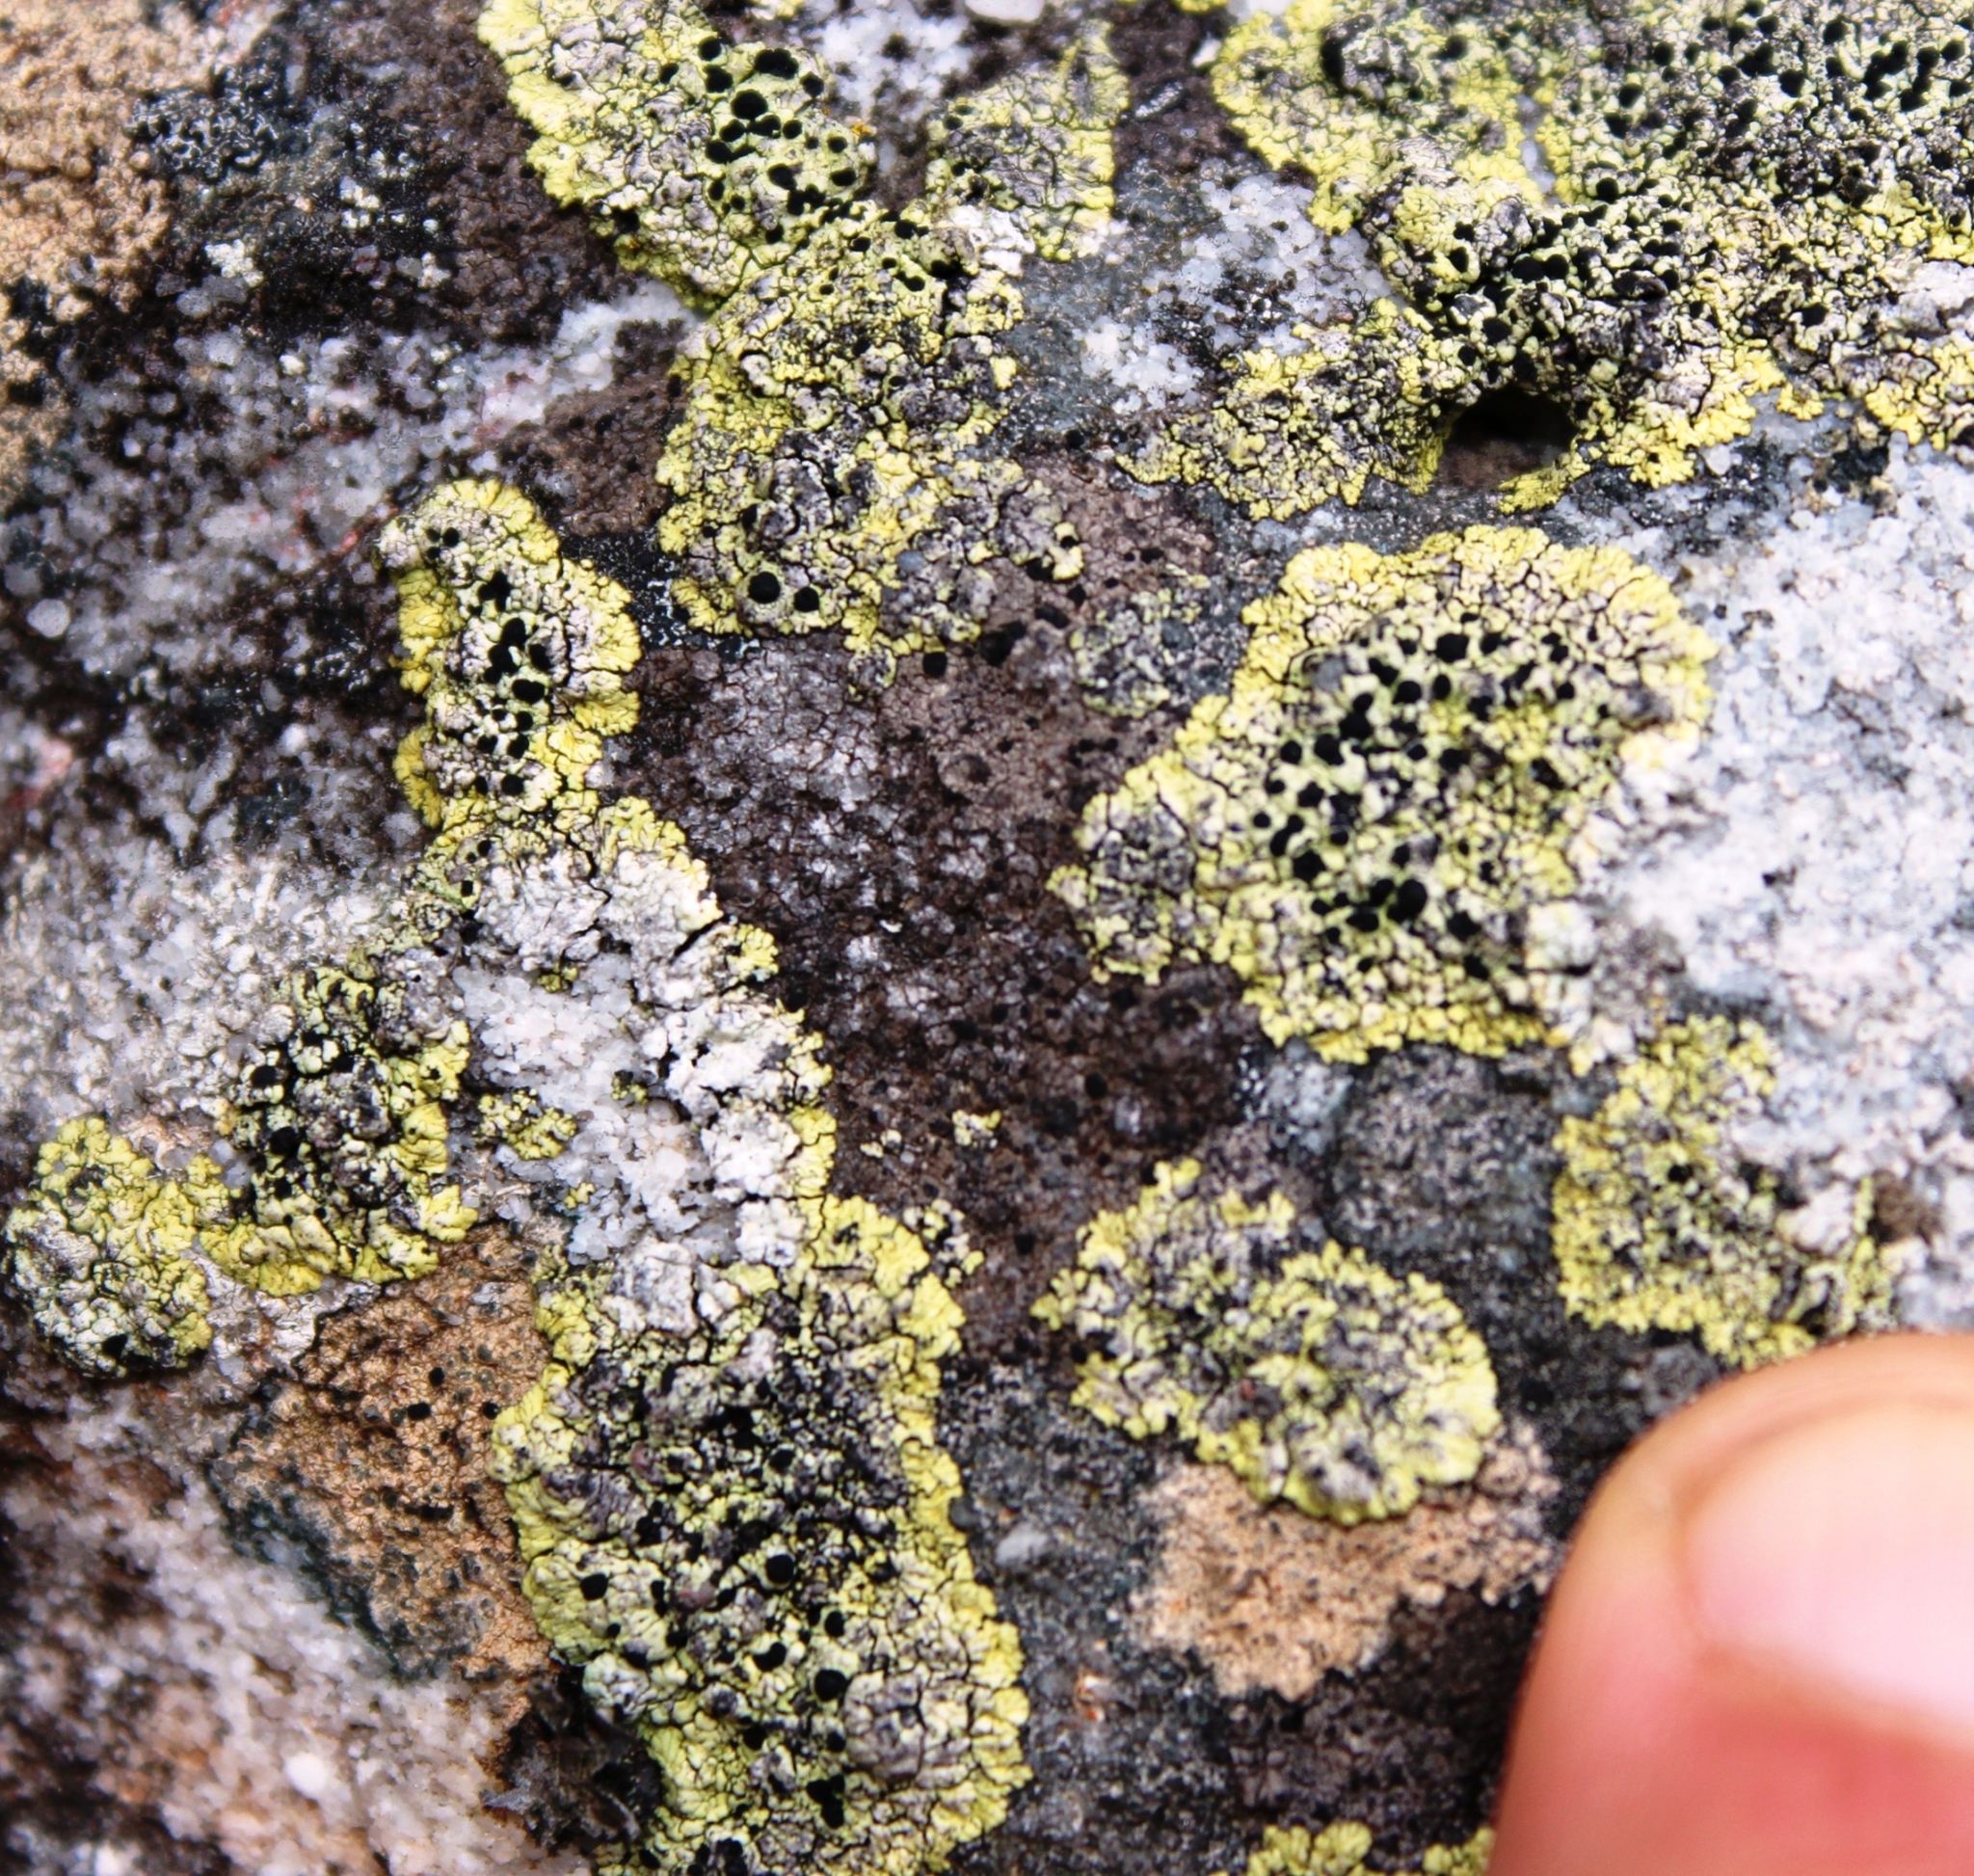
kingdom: Fungi
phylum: Ascomycota
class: Lecanoromycetes
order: Caliciales
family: Caliciaceae
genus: Diploicia
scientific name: Diploicia africana
